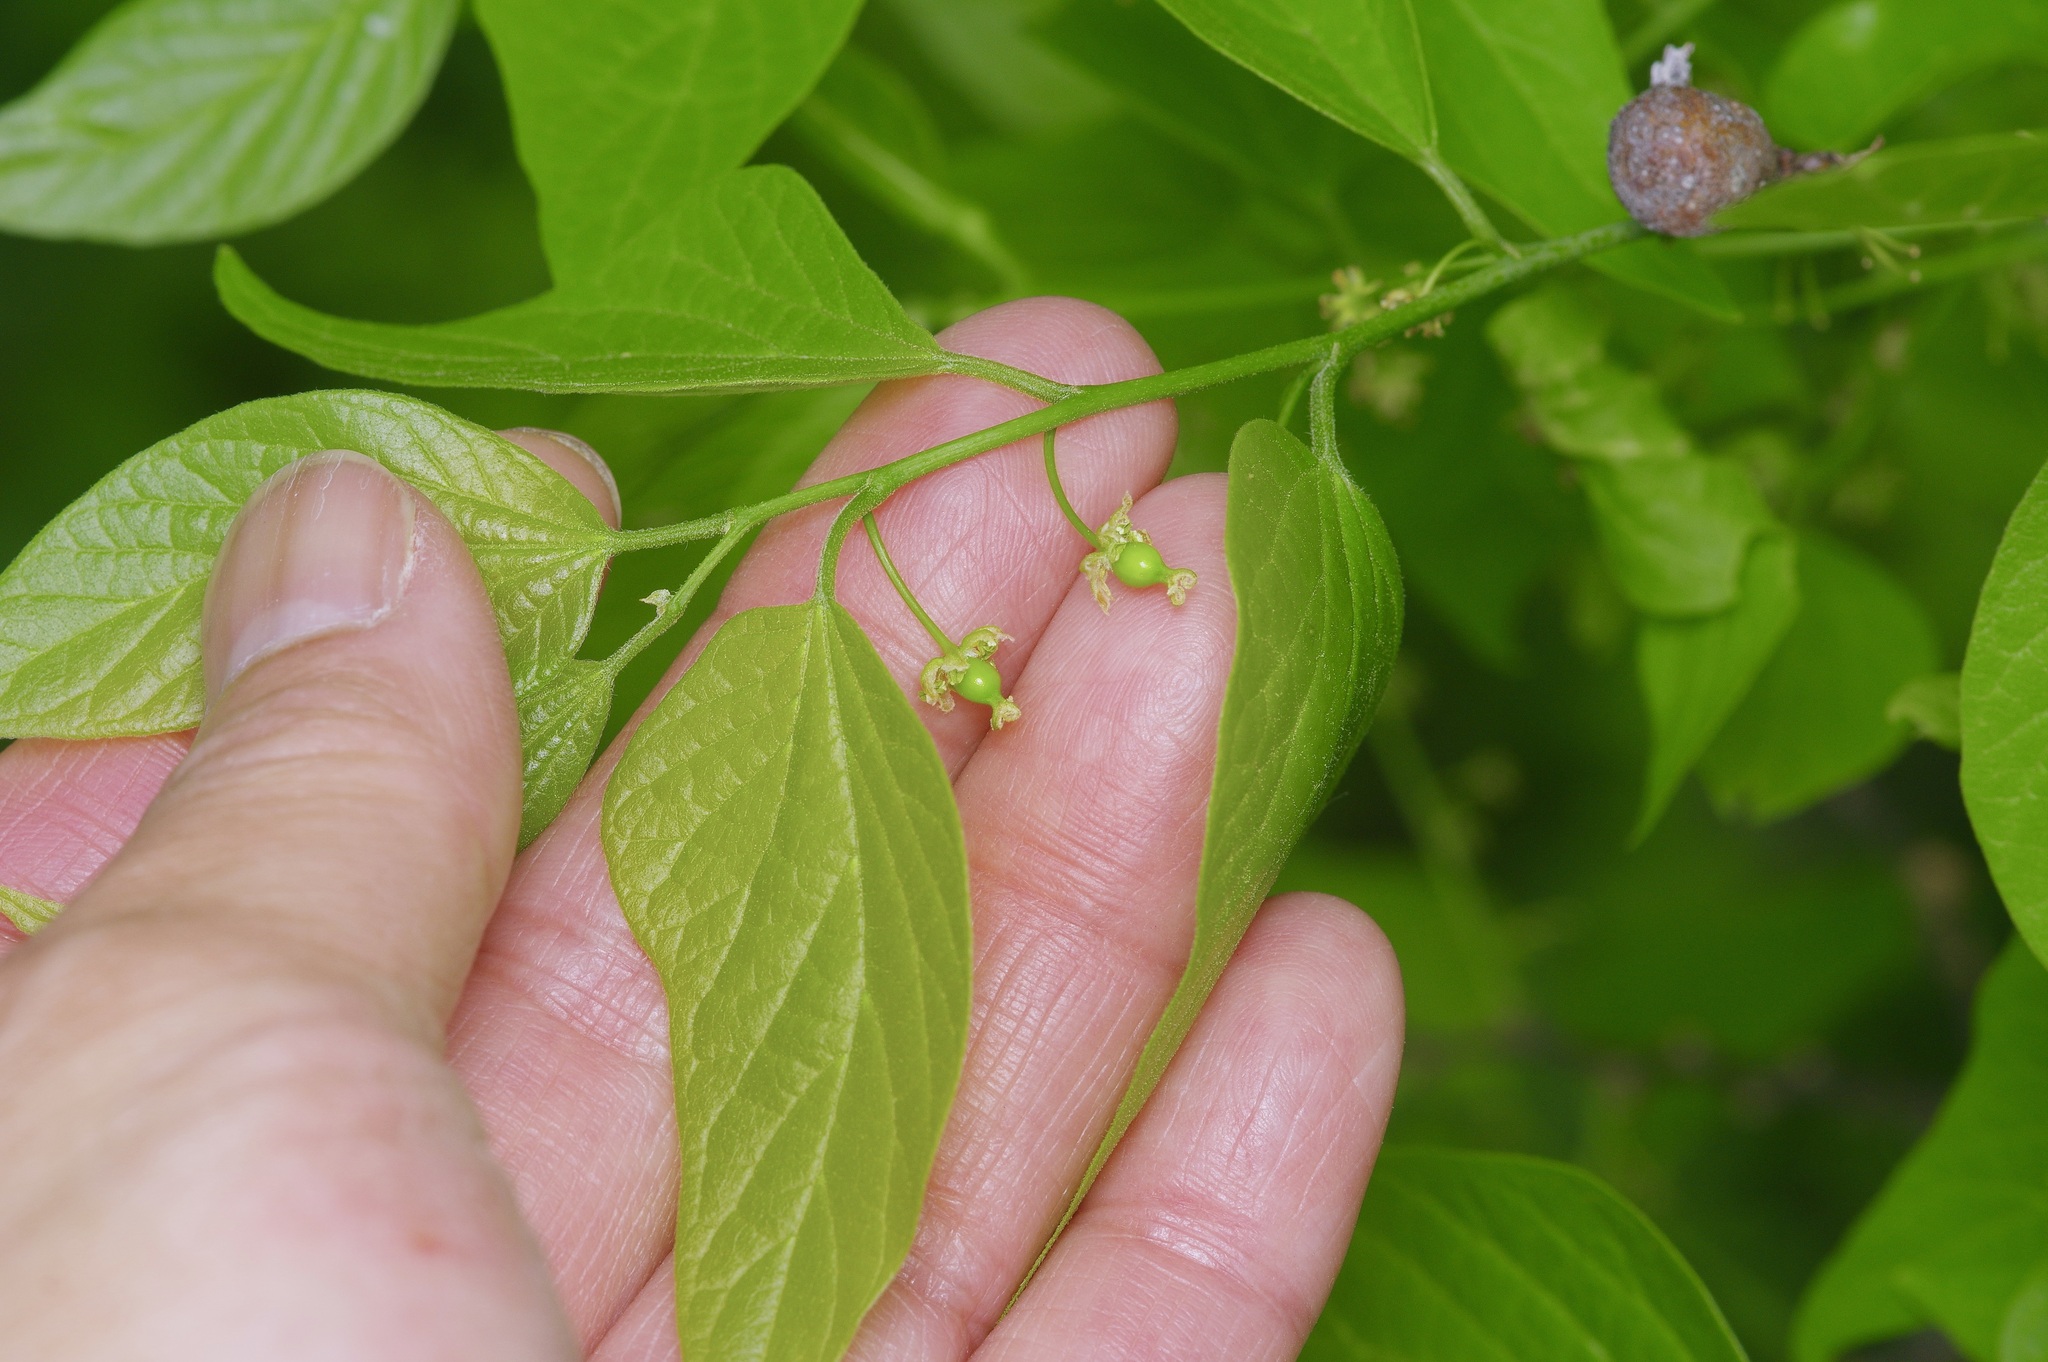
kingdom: Plantae
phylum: Tracheophyta
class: Magnoliopsida
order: Rosales
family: Cannabaceae
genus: Celtis
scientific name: Celtis laevigata
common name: Sugarberry
